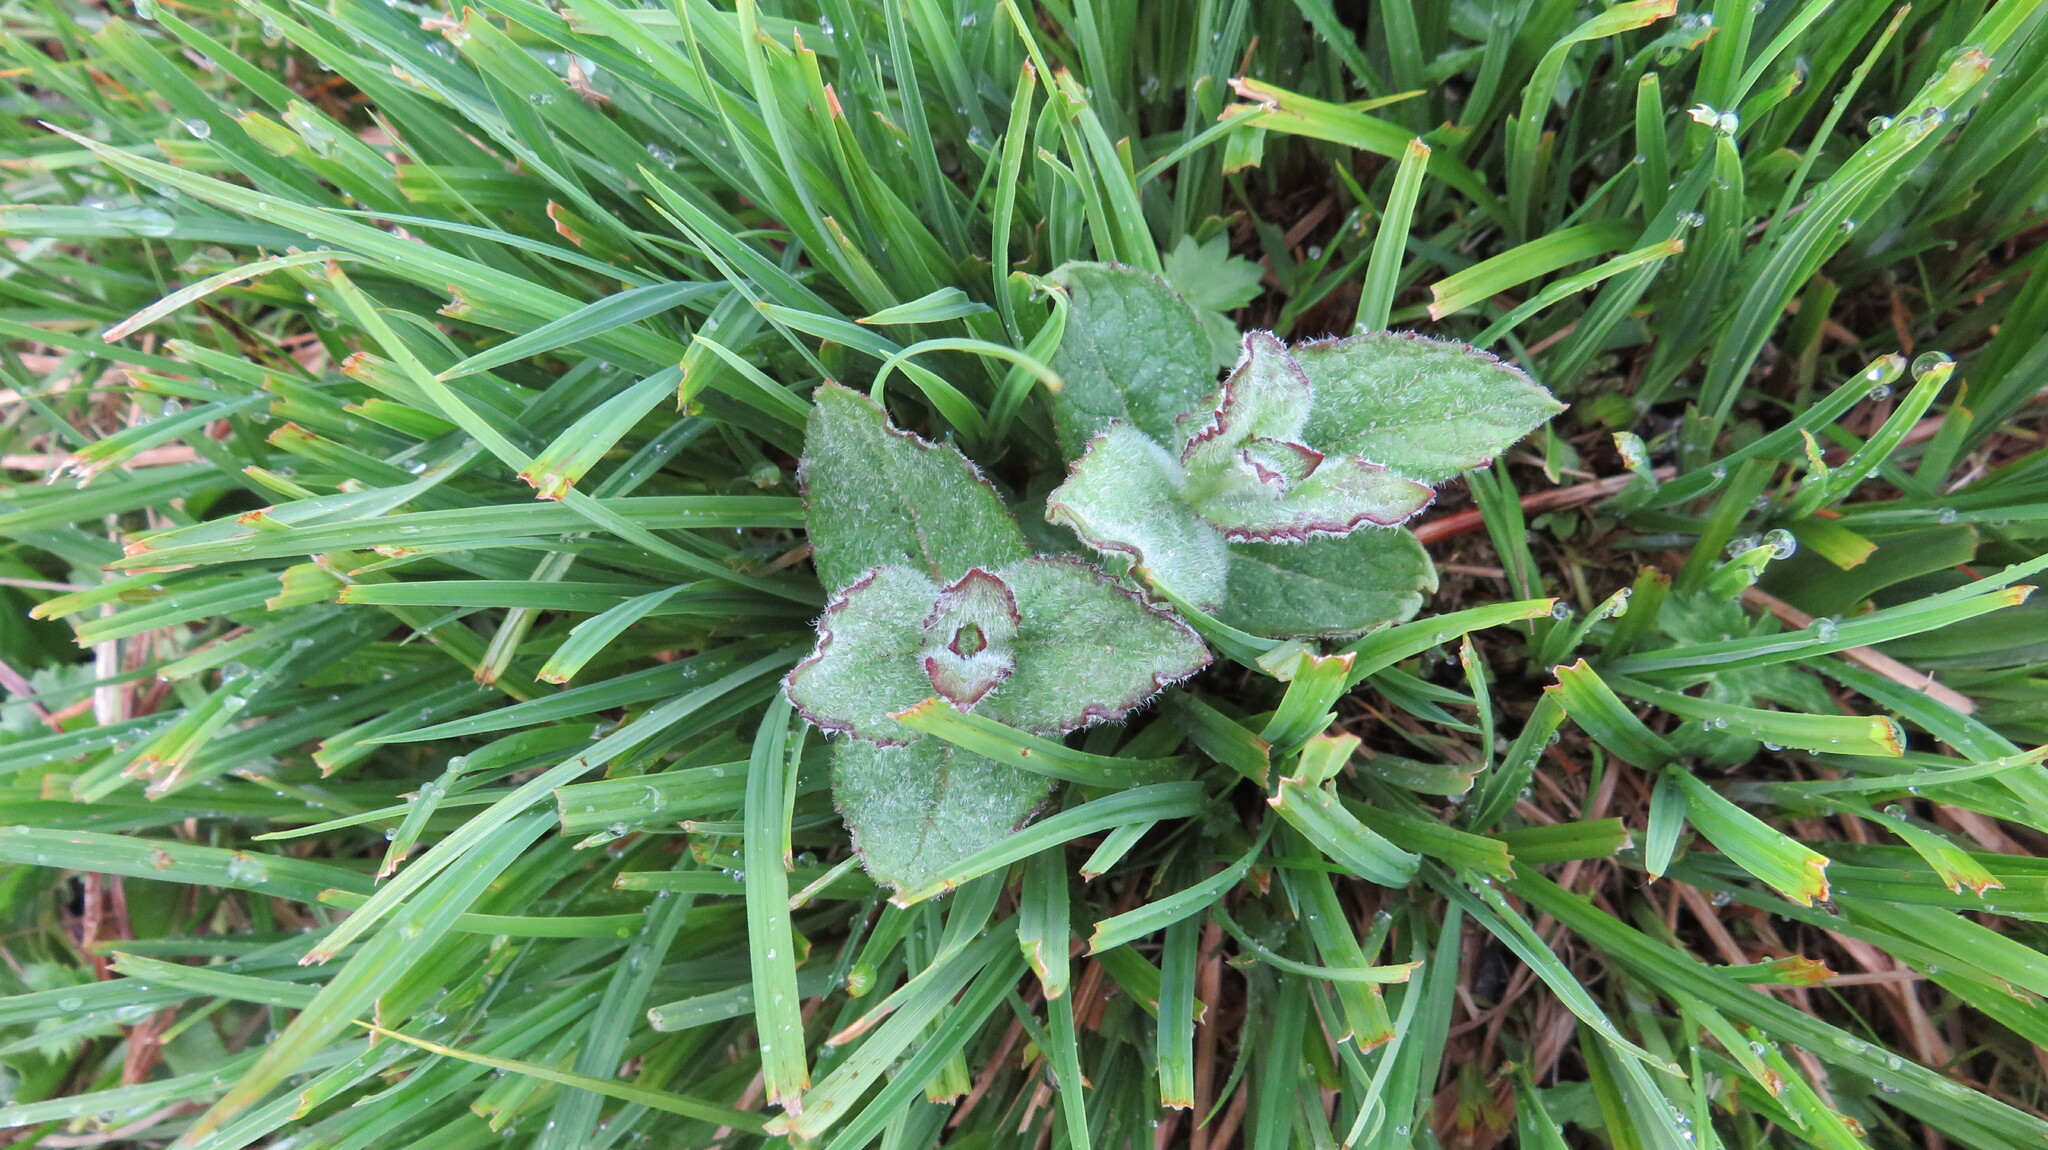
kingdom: Plantae
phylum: Tracheophyta
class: Magnoliopsida
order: Lamiales
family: Lamiaceae
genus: Mentha
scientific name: Mentha longifolia
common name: Horse mint
